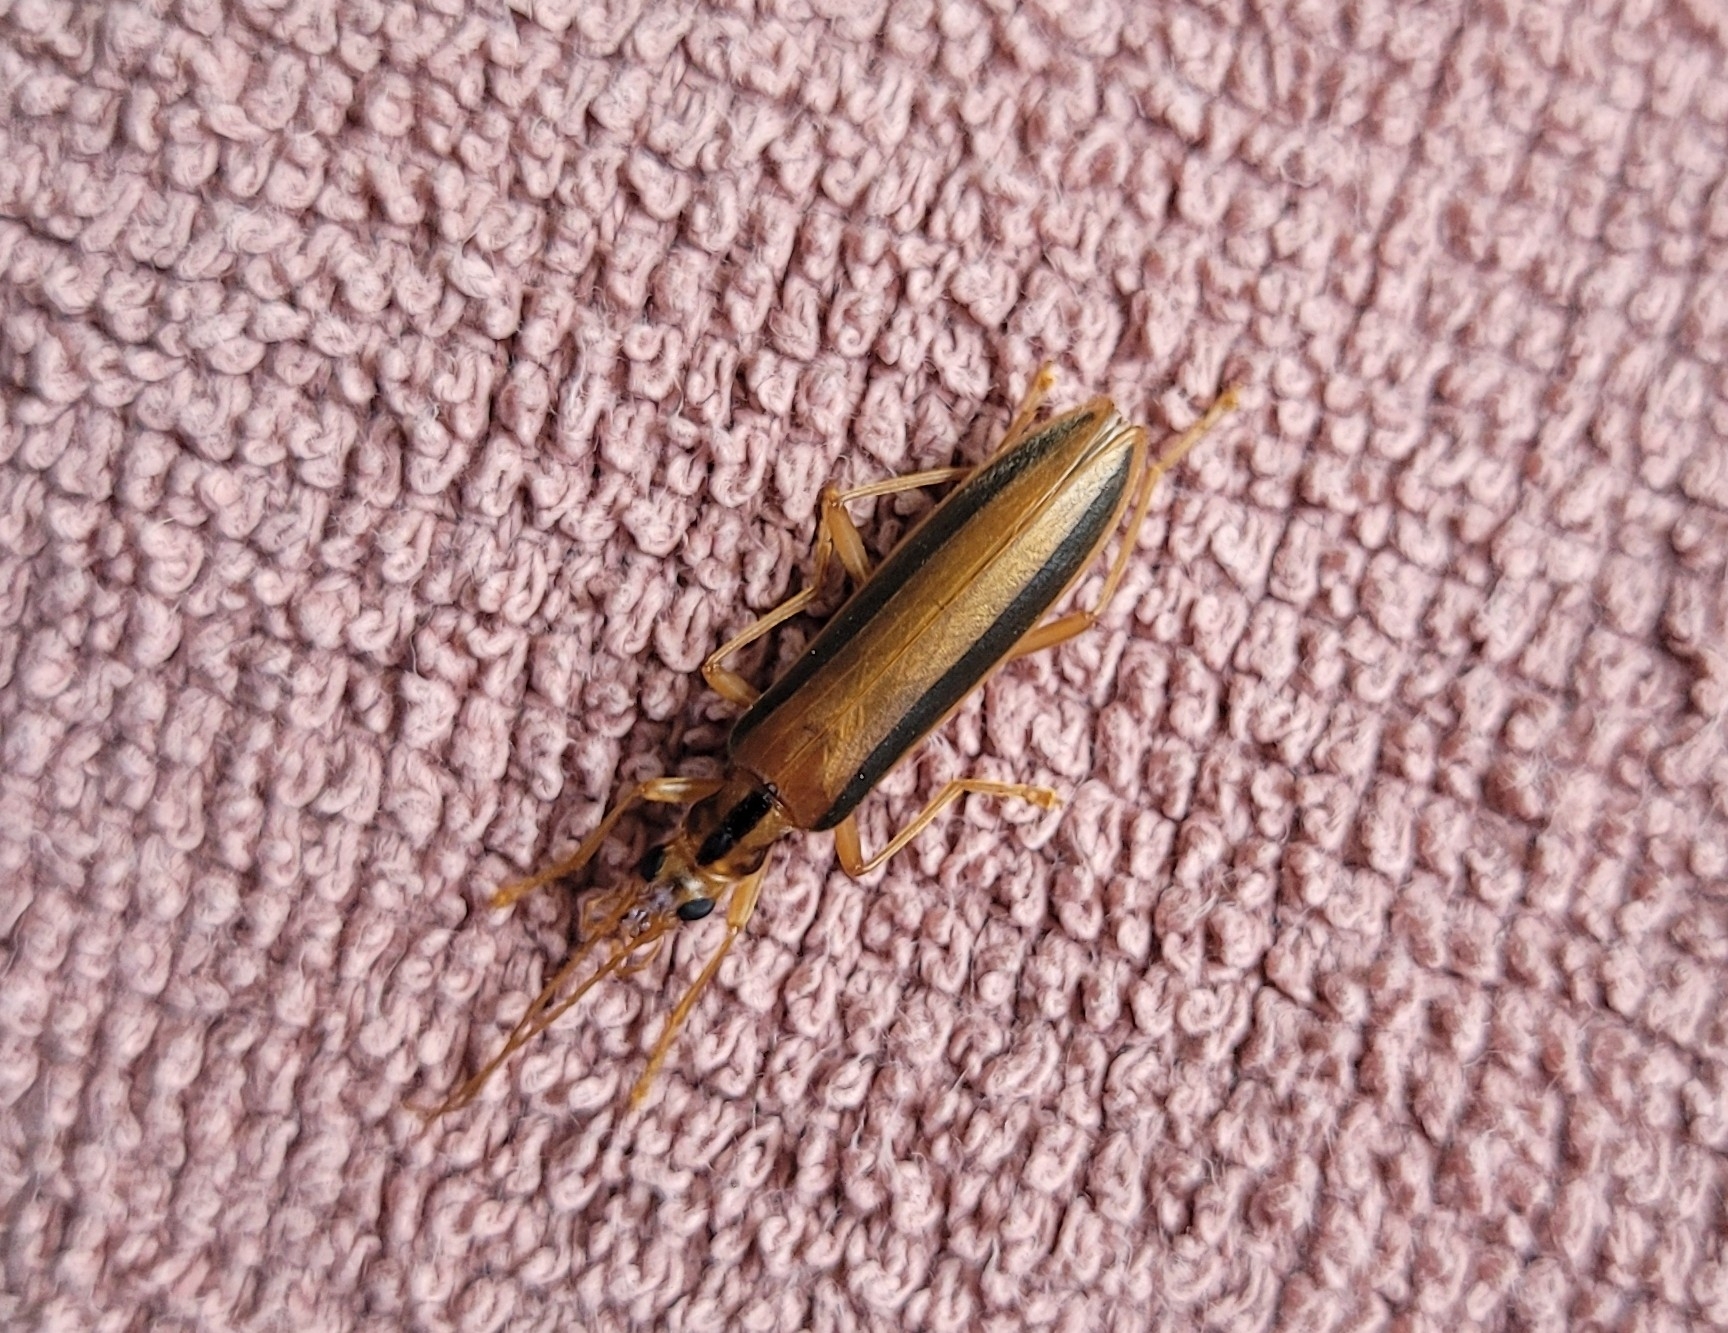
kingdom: Animalia
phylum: Arthropoda
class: Insecta
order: Coleoptera
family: Oedemeridae
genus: Thelyphassa
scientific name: Thelyphassa
